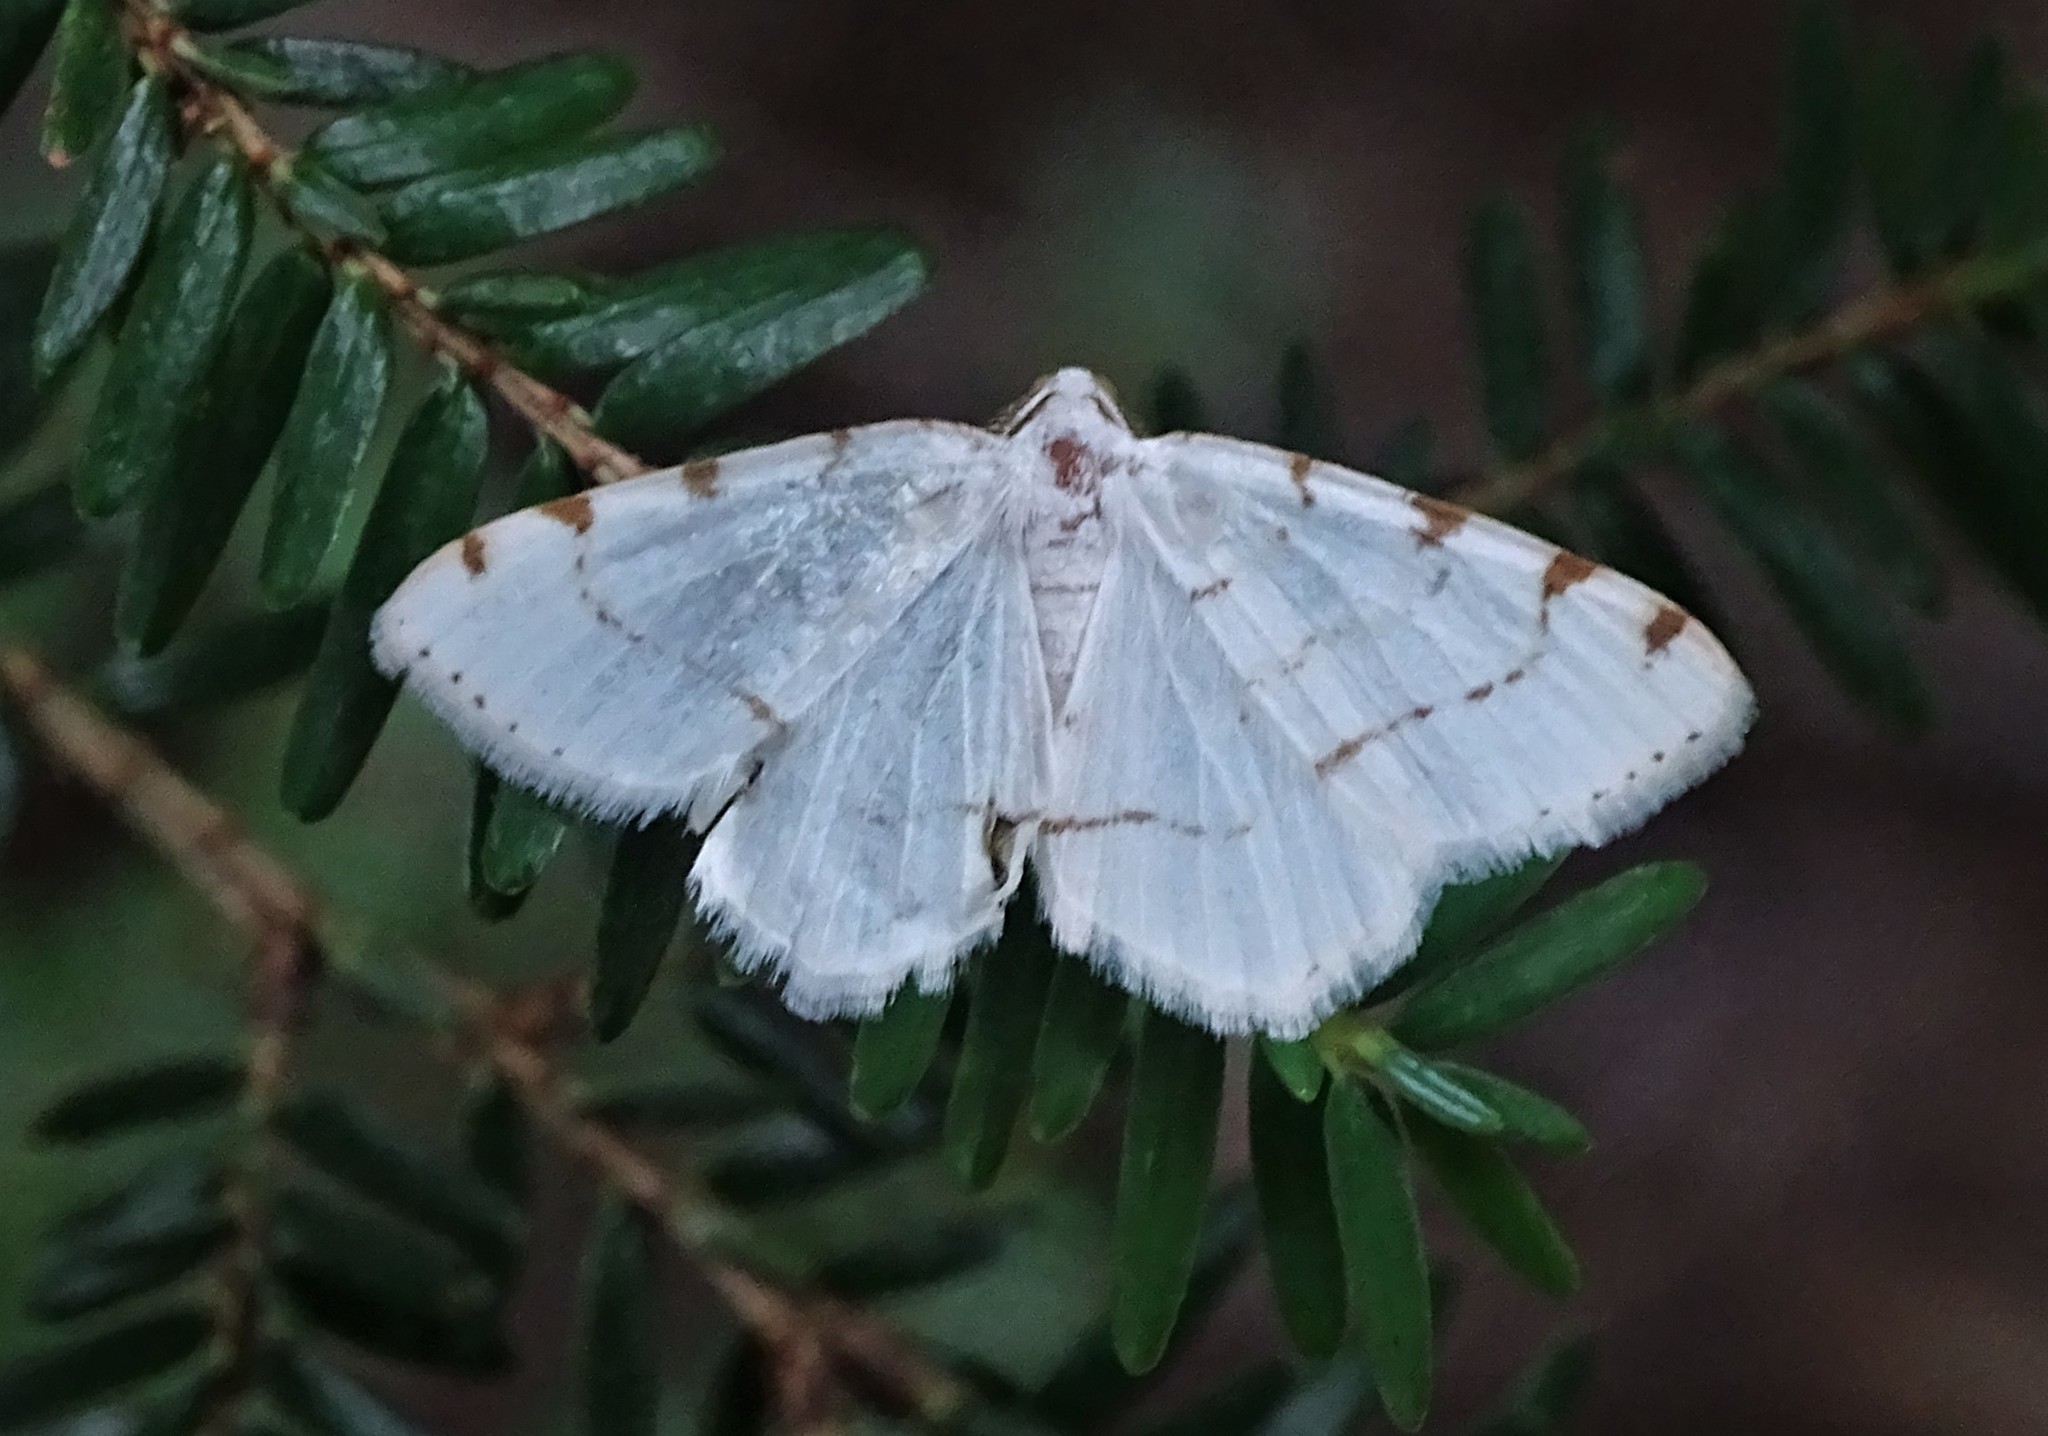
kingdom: Animalia
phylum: Arthropoda
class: Insecta
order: Lepidoptera
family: Geometridae
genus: Macaria
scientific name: Macaria pustularia
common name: Lesser maple spanworm moth
